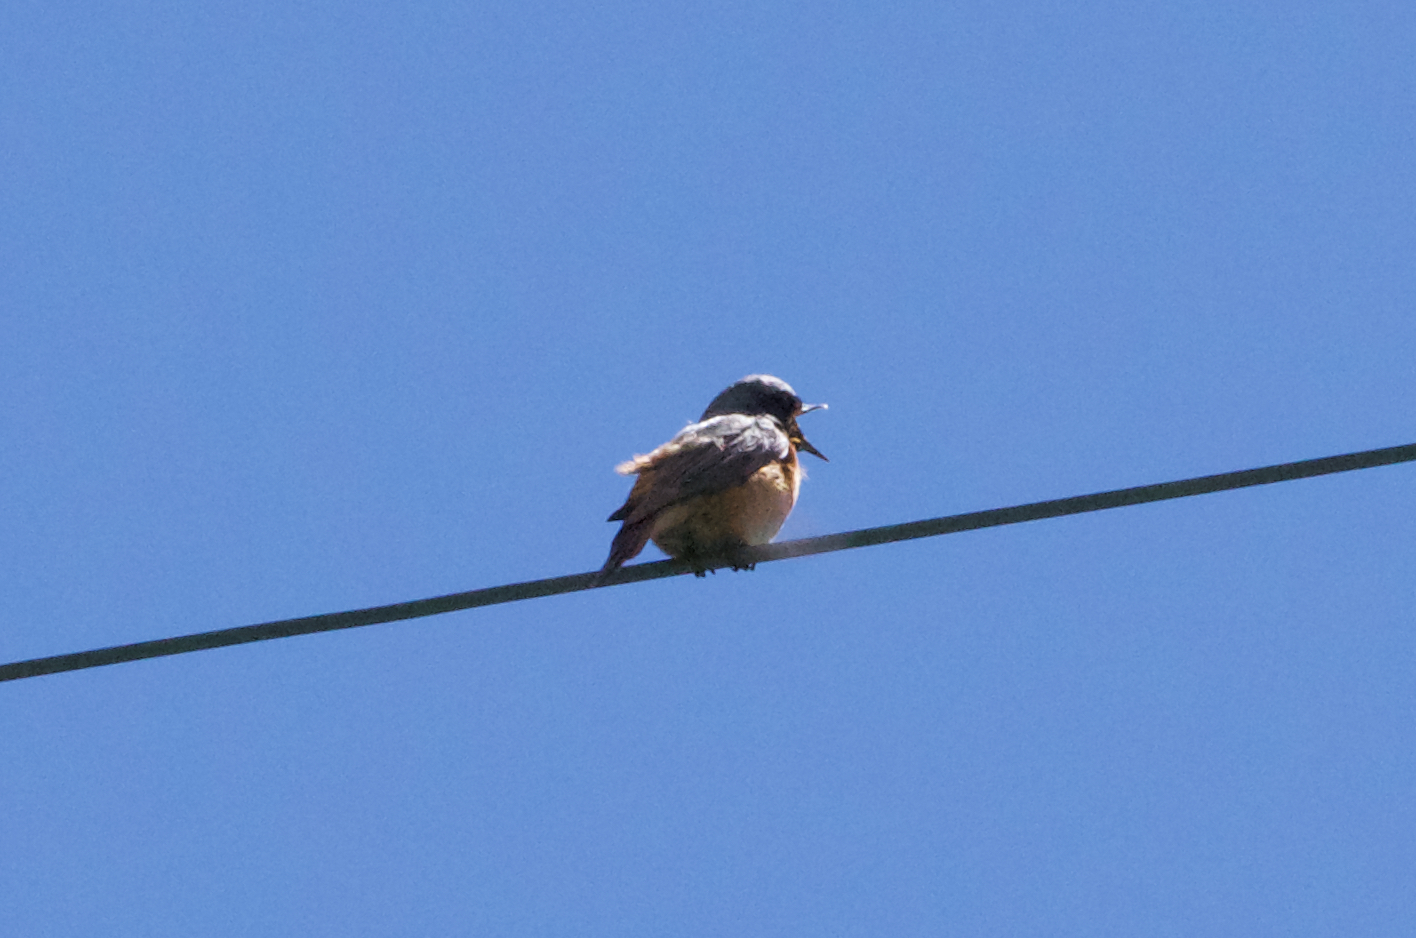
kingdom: Animalia
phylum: Chordata
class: Aves
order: Passeriformes
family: Muscicapidae
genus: Phoenicurus
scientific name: Phoenicurus phoenicurus
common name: Common redstart
